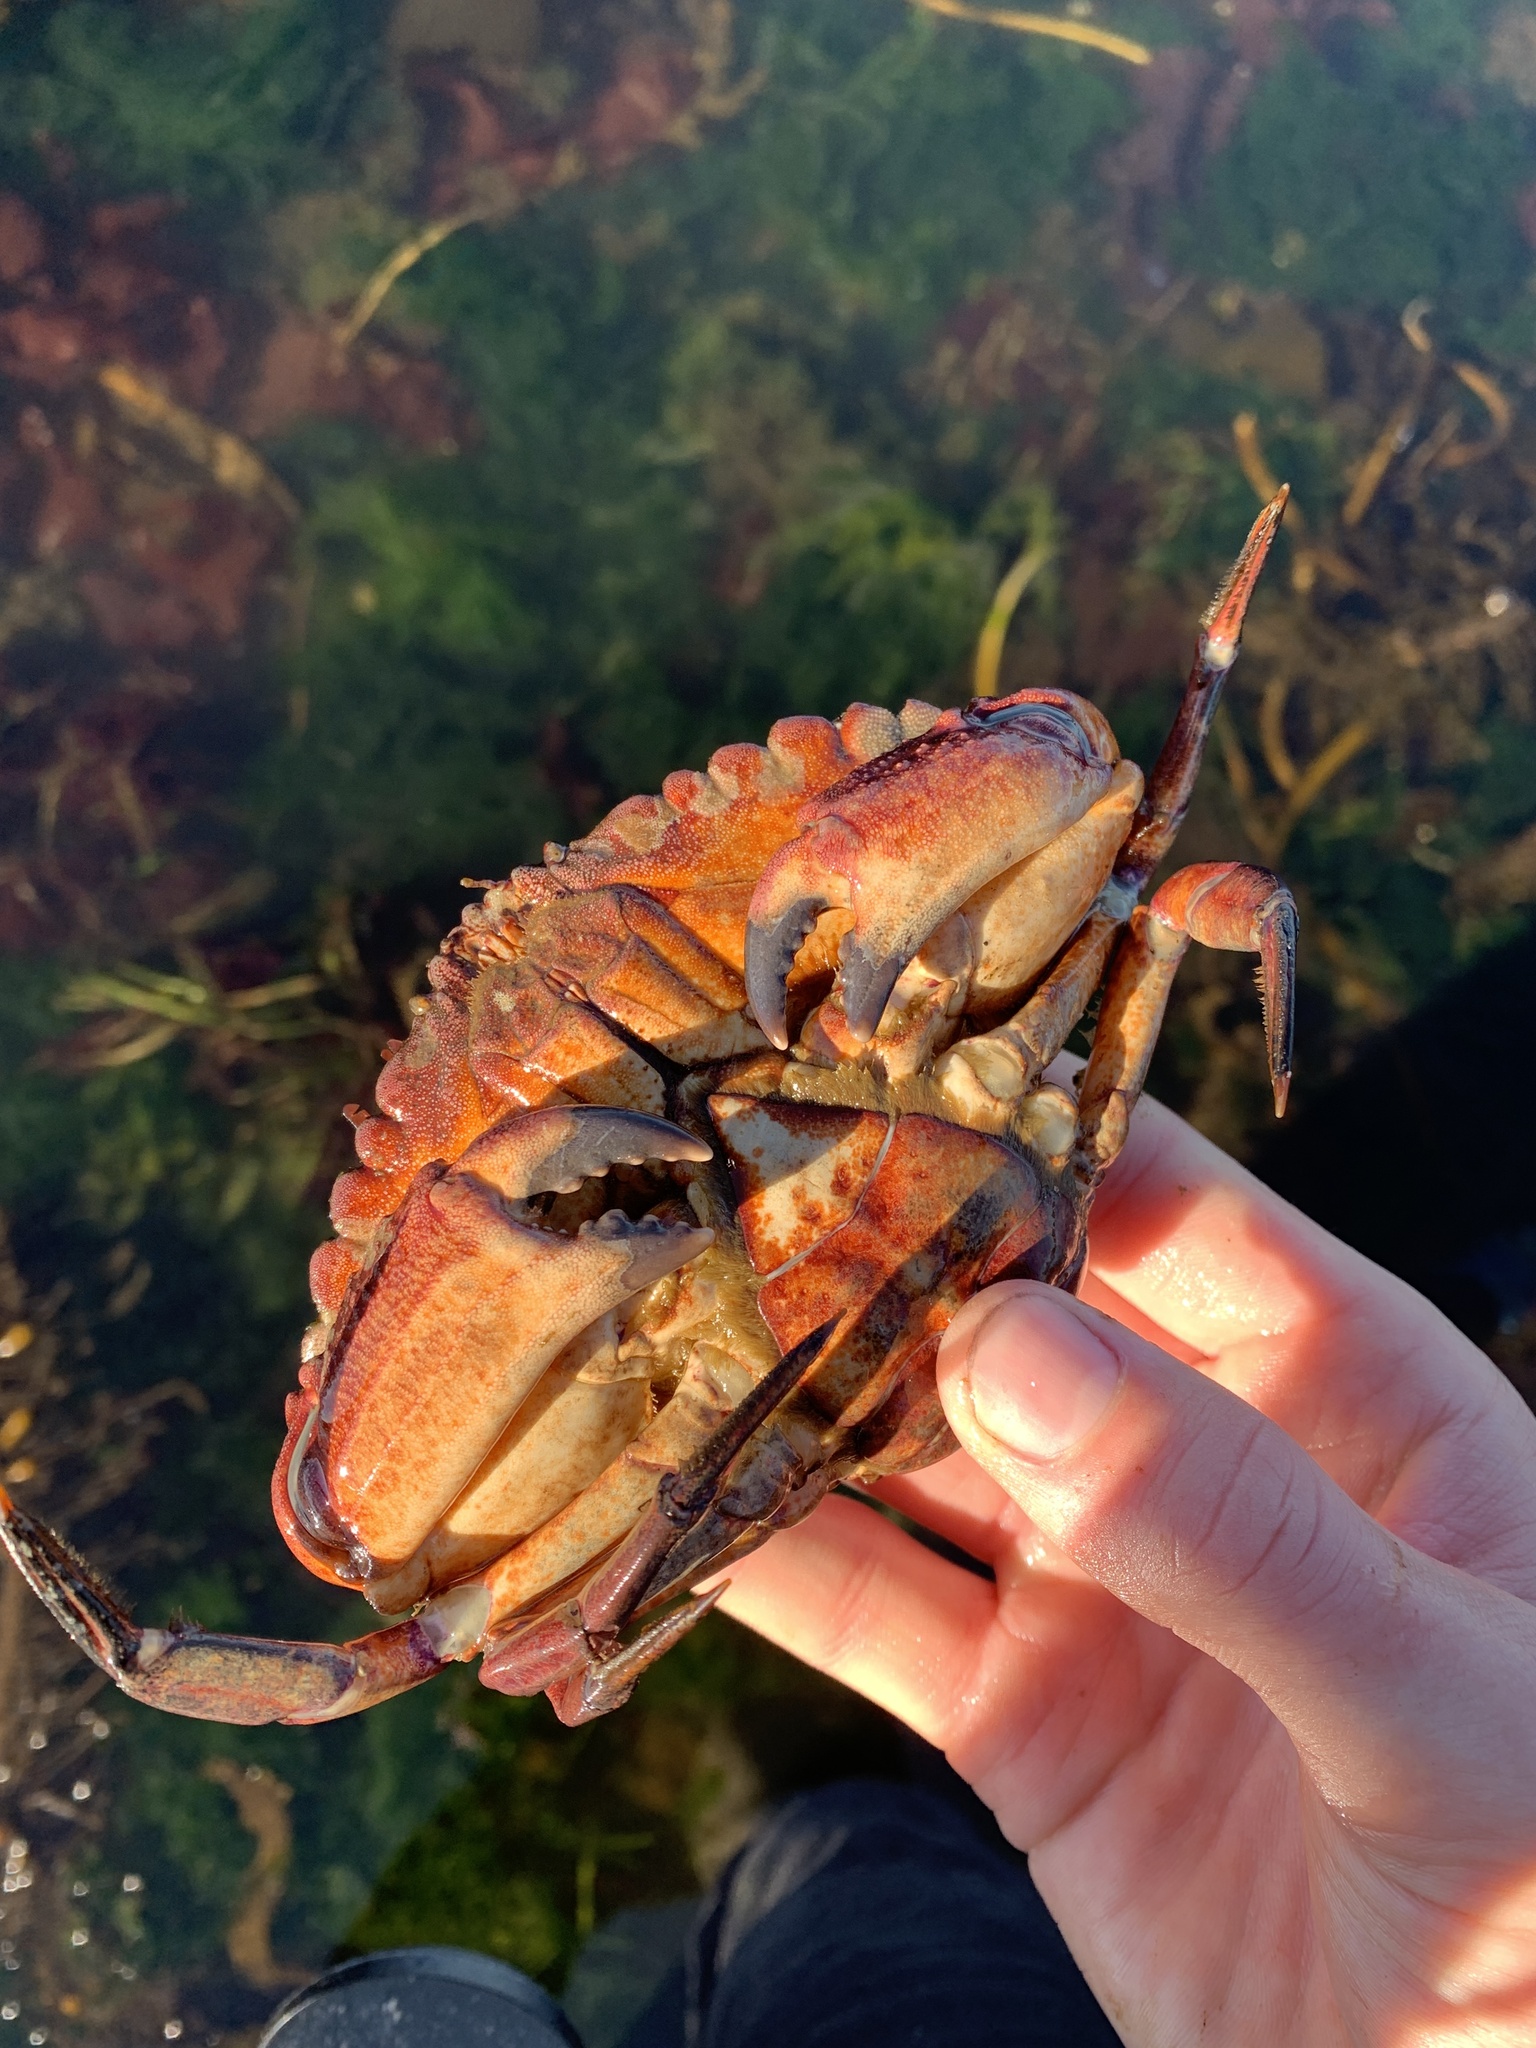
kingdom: Animalia
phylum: Arthropoda
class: Malacostraca
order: Decapoda
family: Cancridae
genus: Cancer
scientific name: Cancer productus
